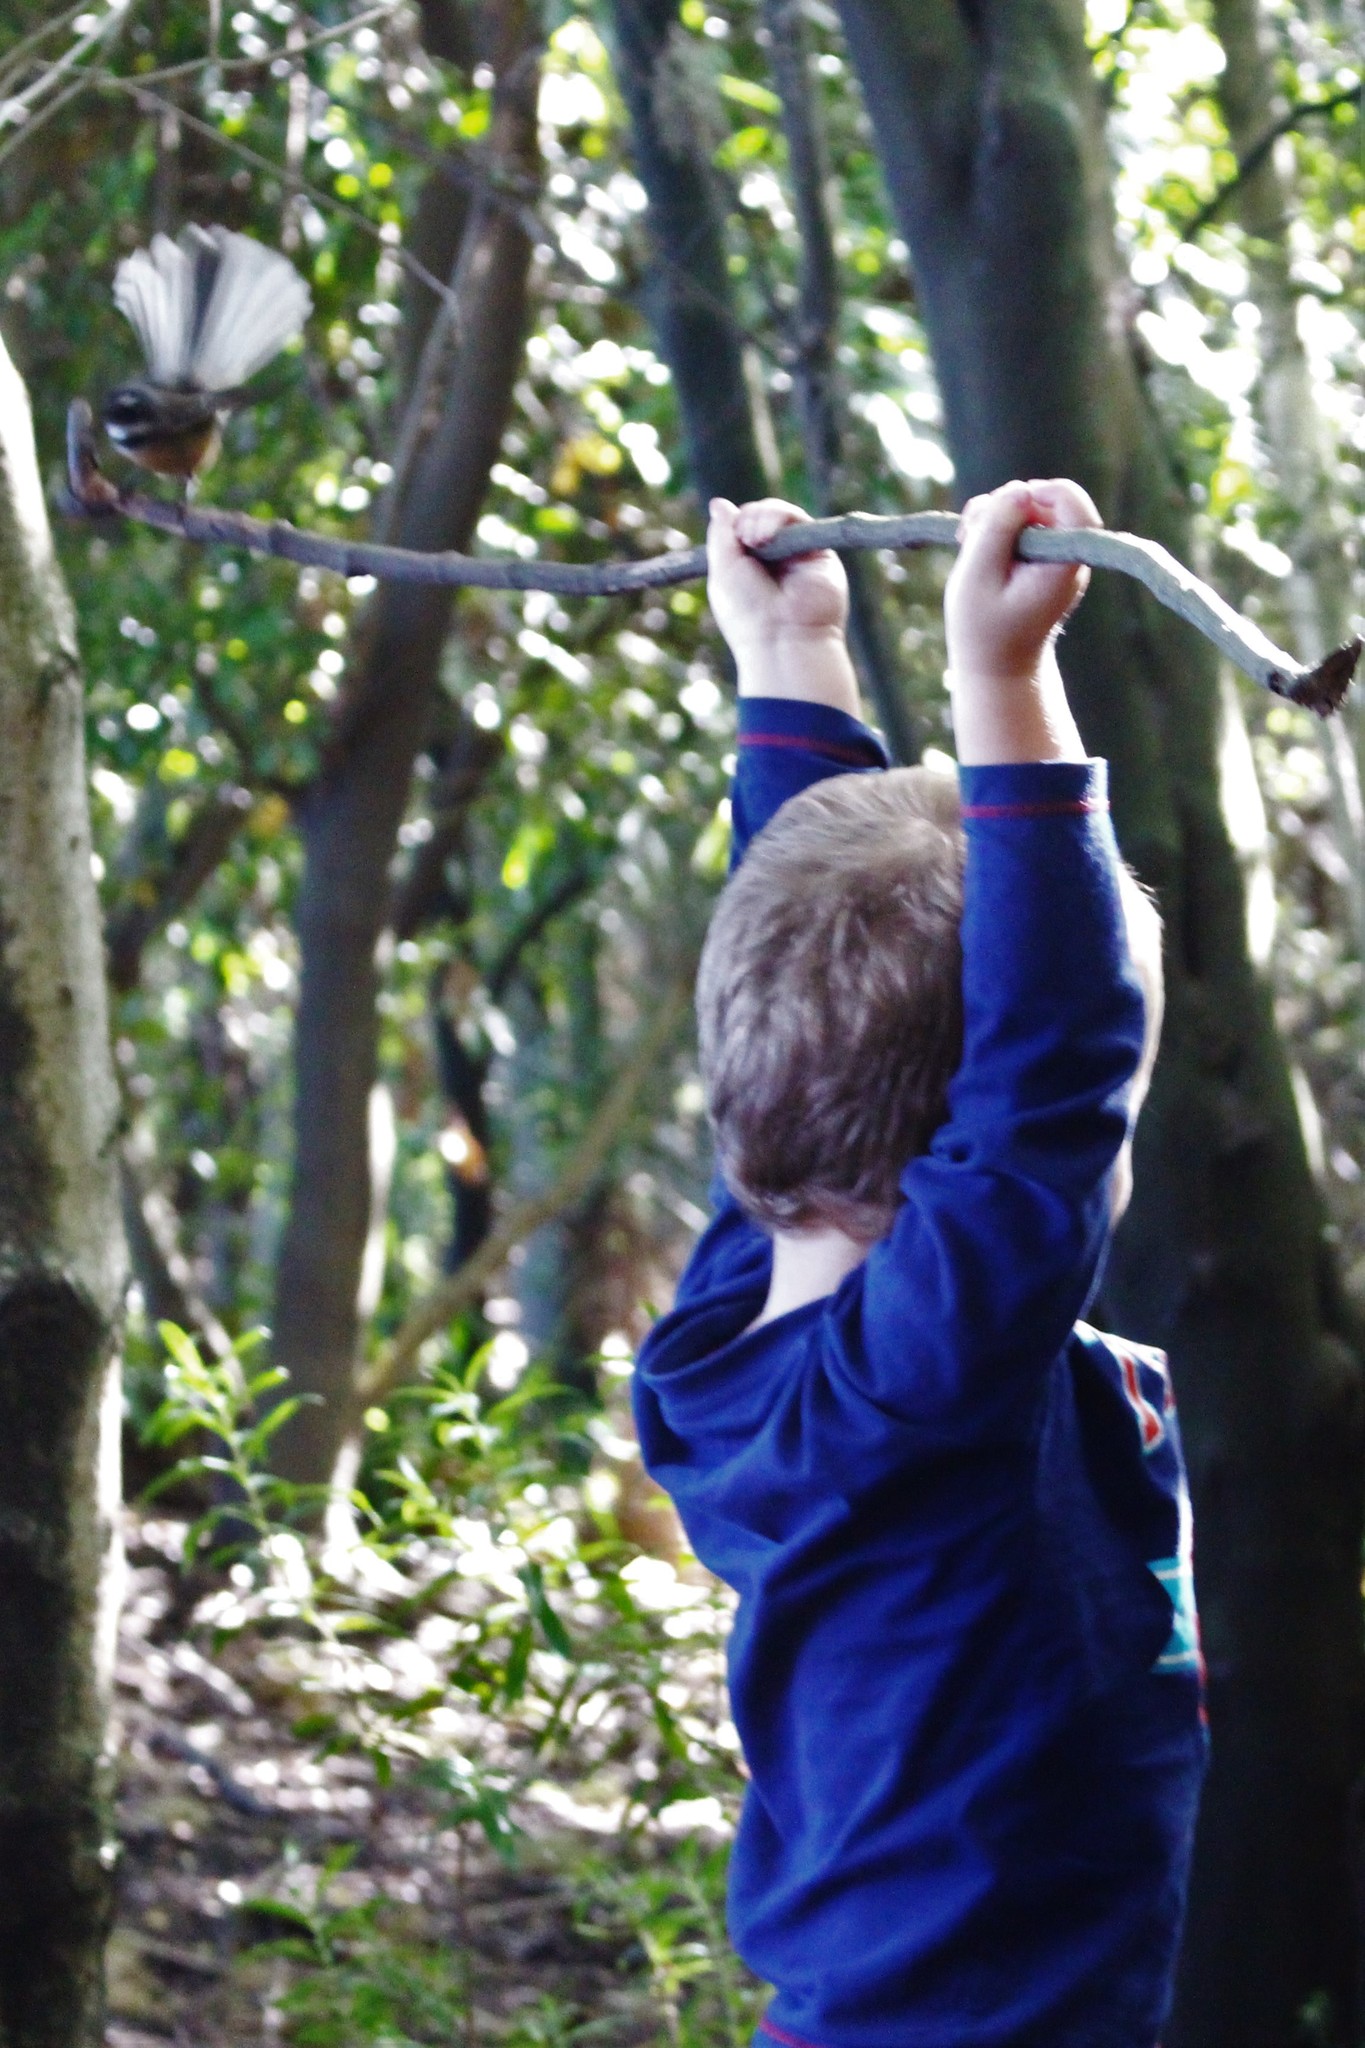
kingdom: Animalia
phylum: Chordata
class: Aves
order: Passeriformes
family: Rhipiduridae
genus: Rhipidura
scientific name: Rhipidura fuliginosa
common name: New zealand fantail
